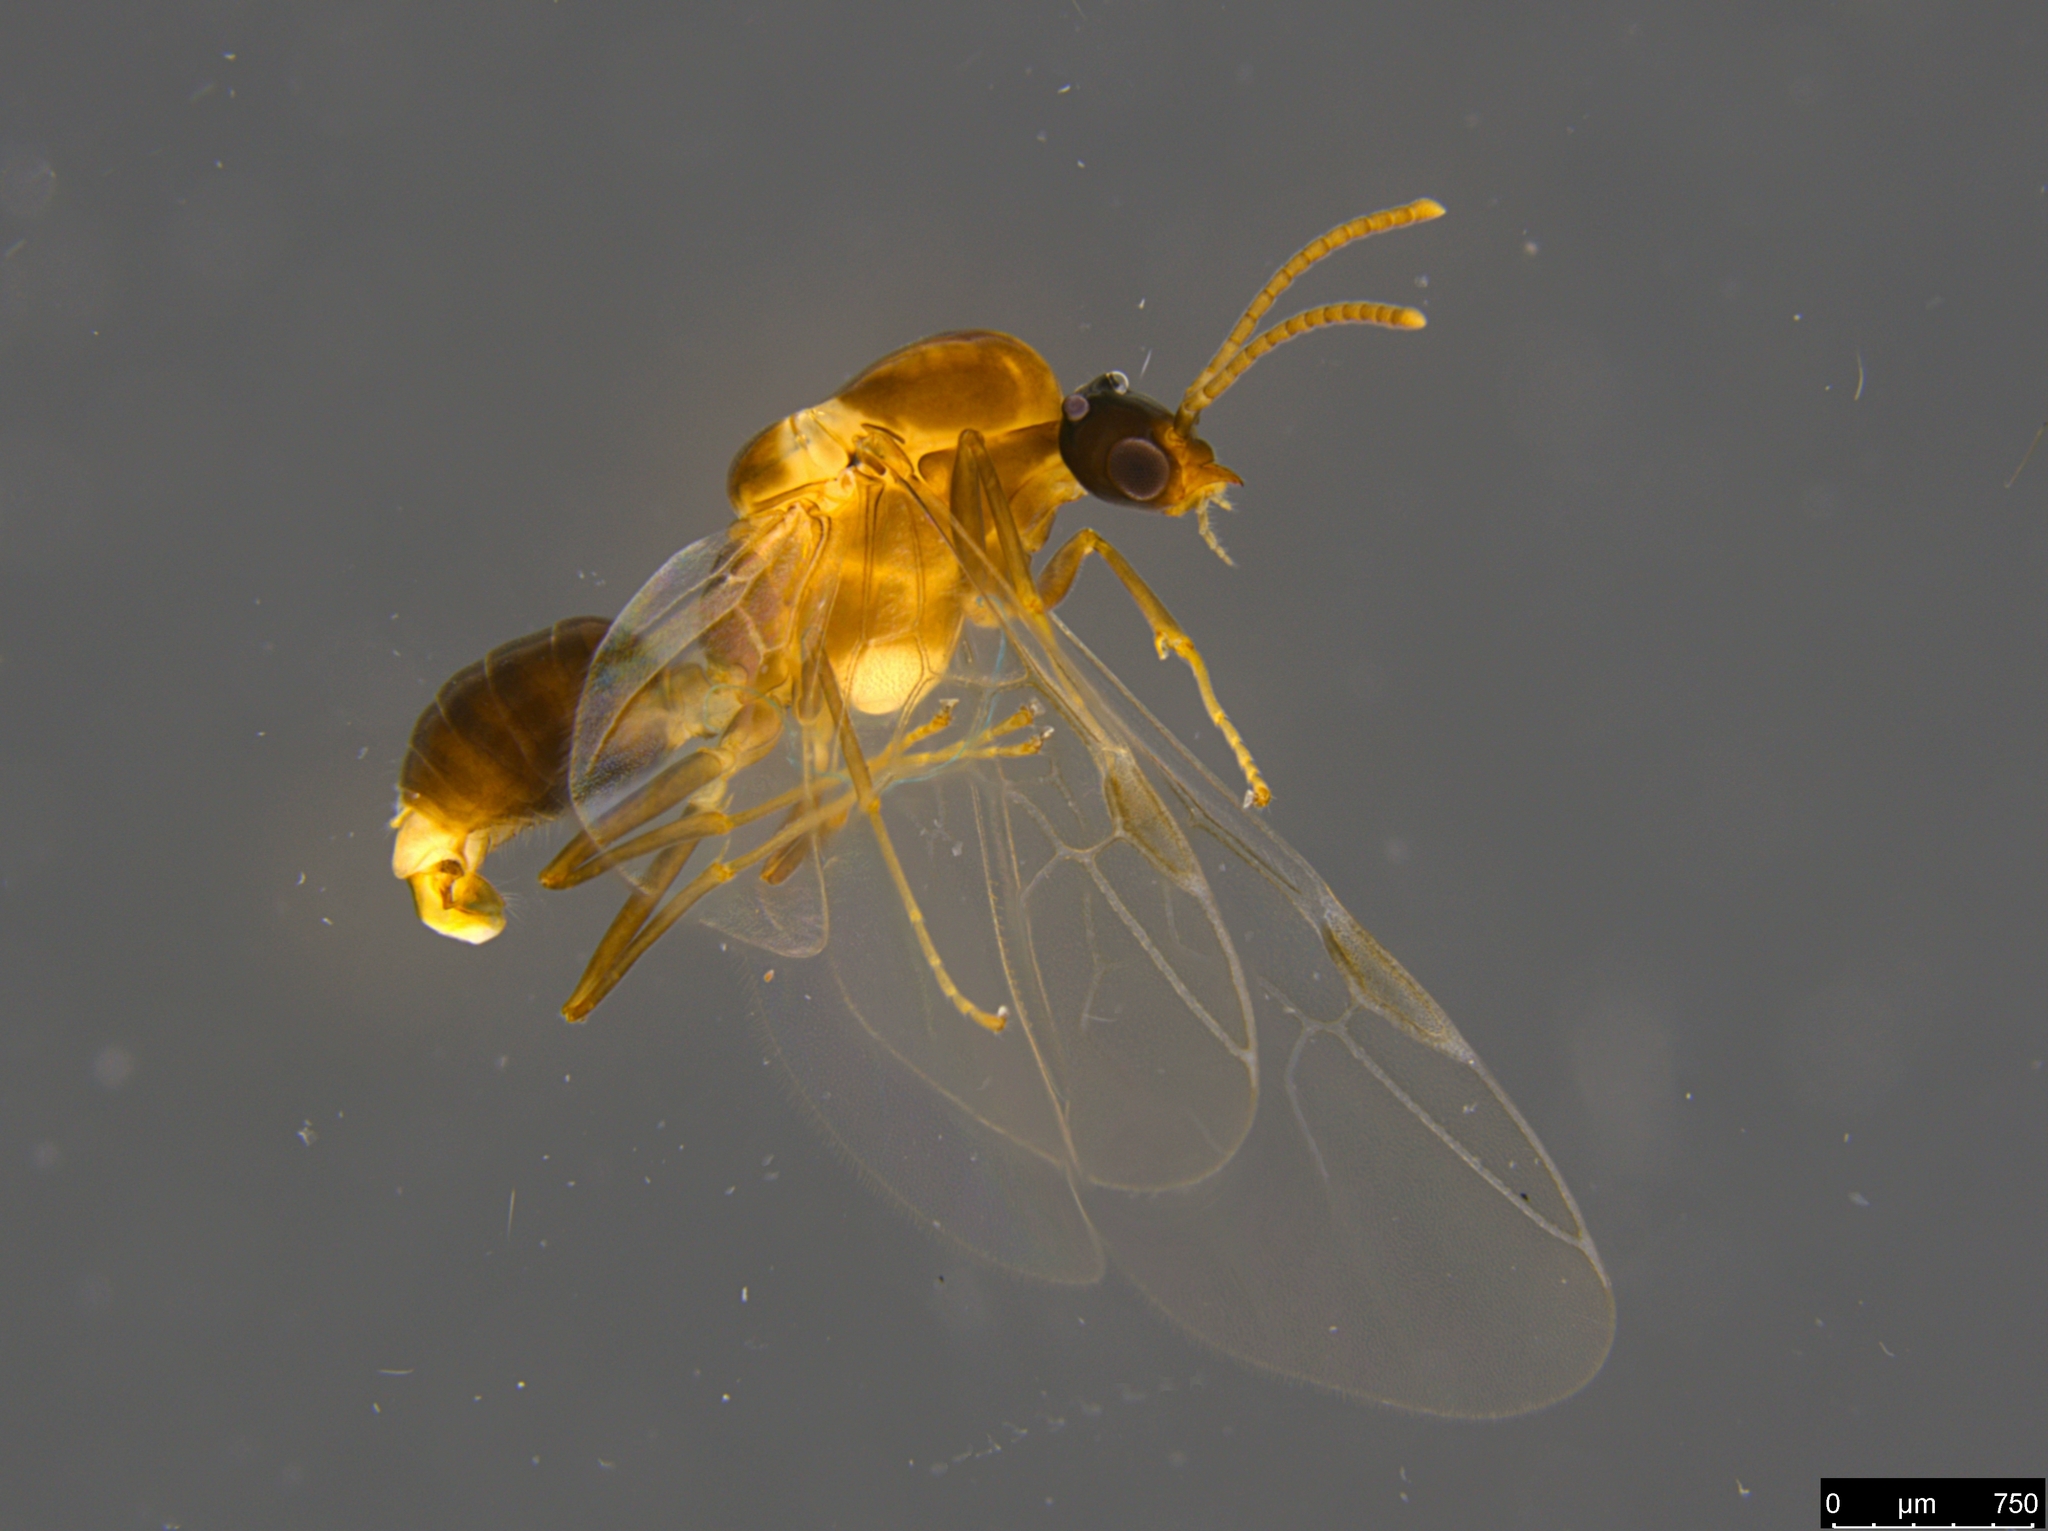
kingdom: Animalia
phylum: Arthropoda
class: Insecta
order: Hymenoptera
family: Formicidae
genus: Linepithema
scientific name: Linepithema humile
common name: Argentine ant
